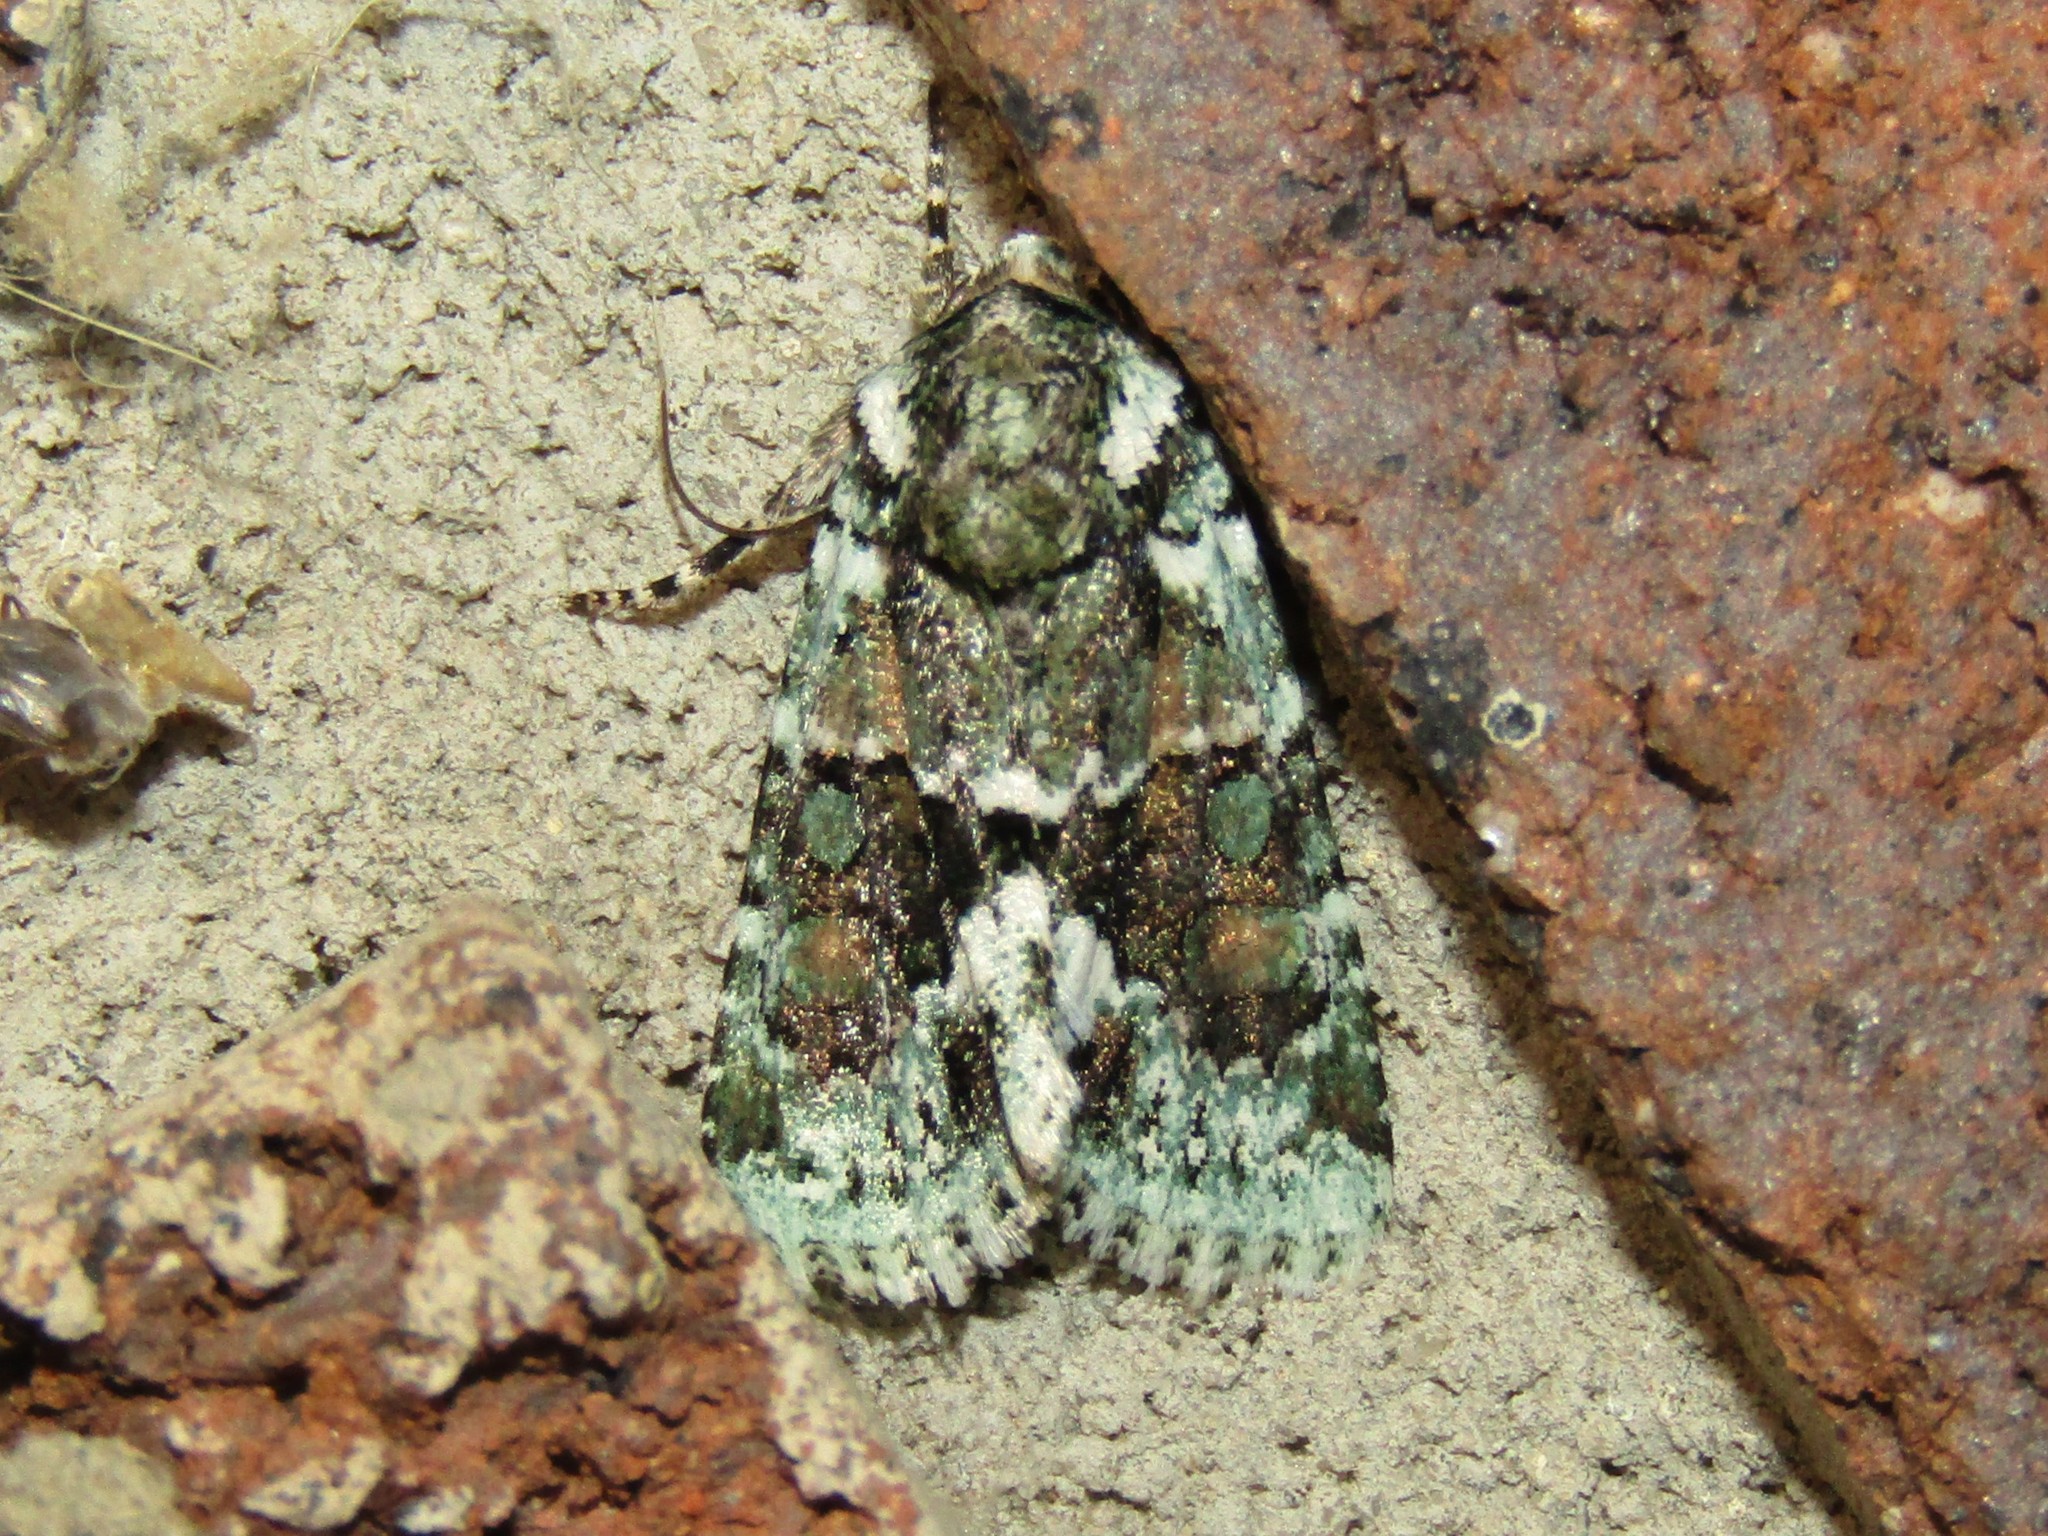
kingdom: Animalia
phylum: Arthropoda
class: Insecta
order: Lepidoptera
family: Noctuidae
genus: Lacinipolia
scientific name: Lacinipolia explicata
